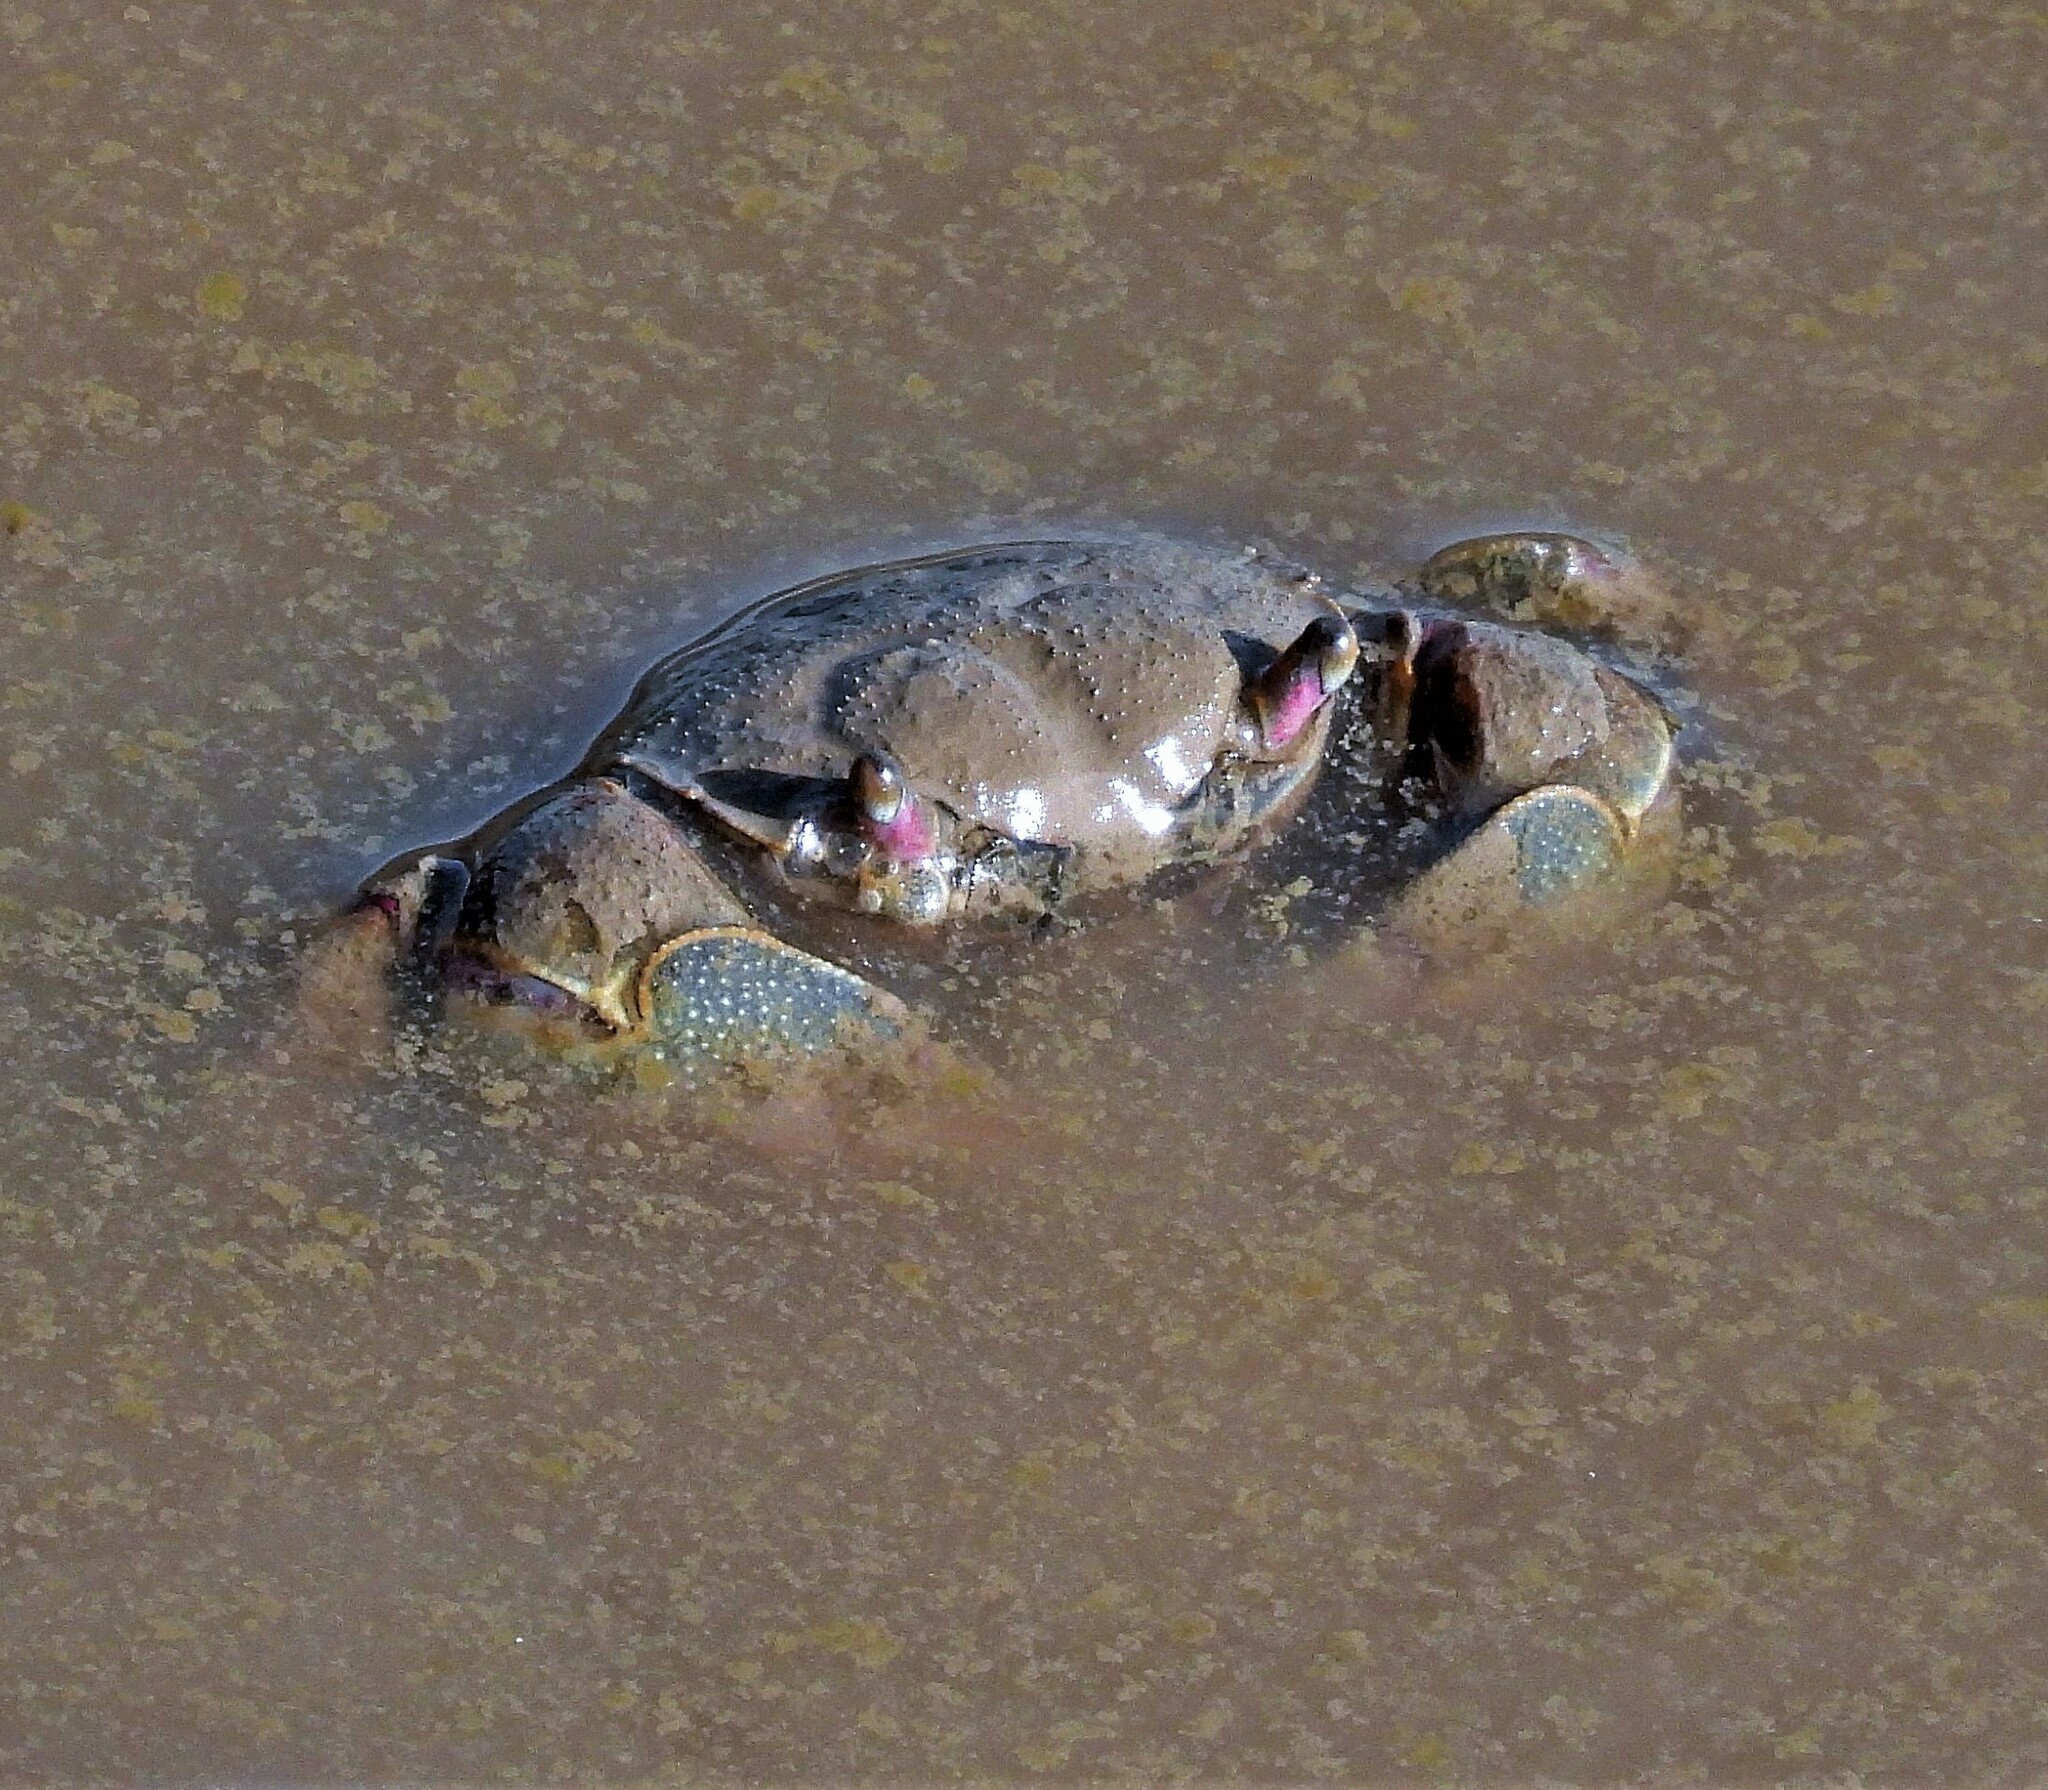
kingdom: Animalia
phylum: Arthropoda
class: Malacostraca
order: Decapoda
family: Varunidae
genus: Neohelice
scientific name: Neohelice granulata
